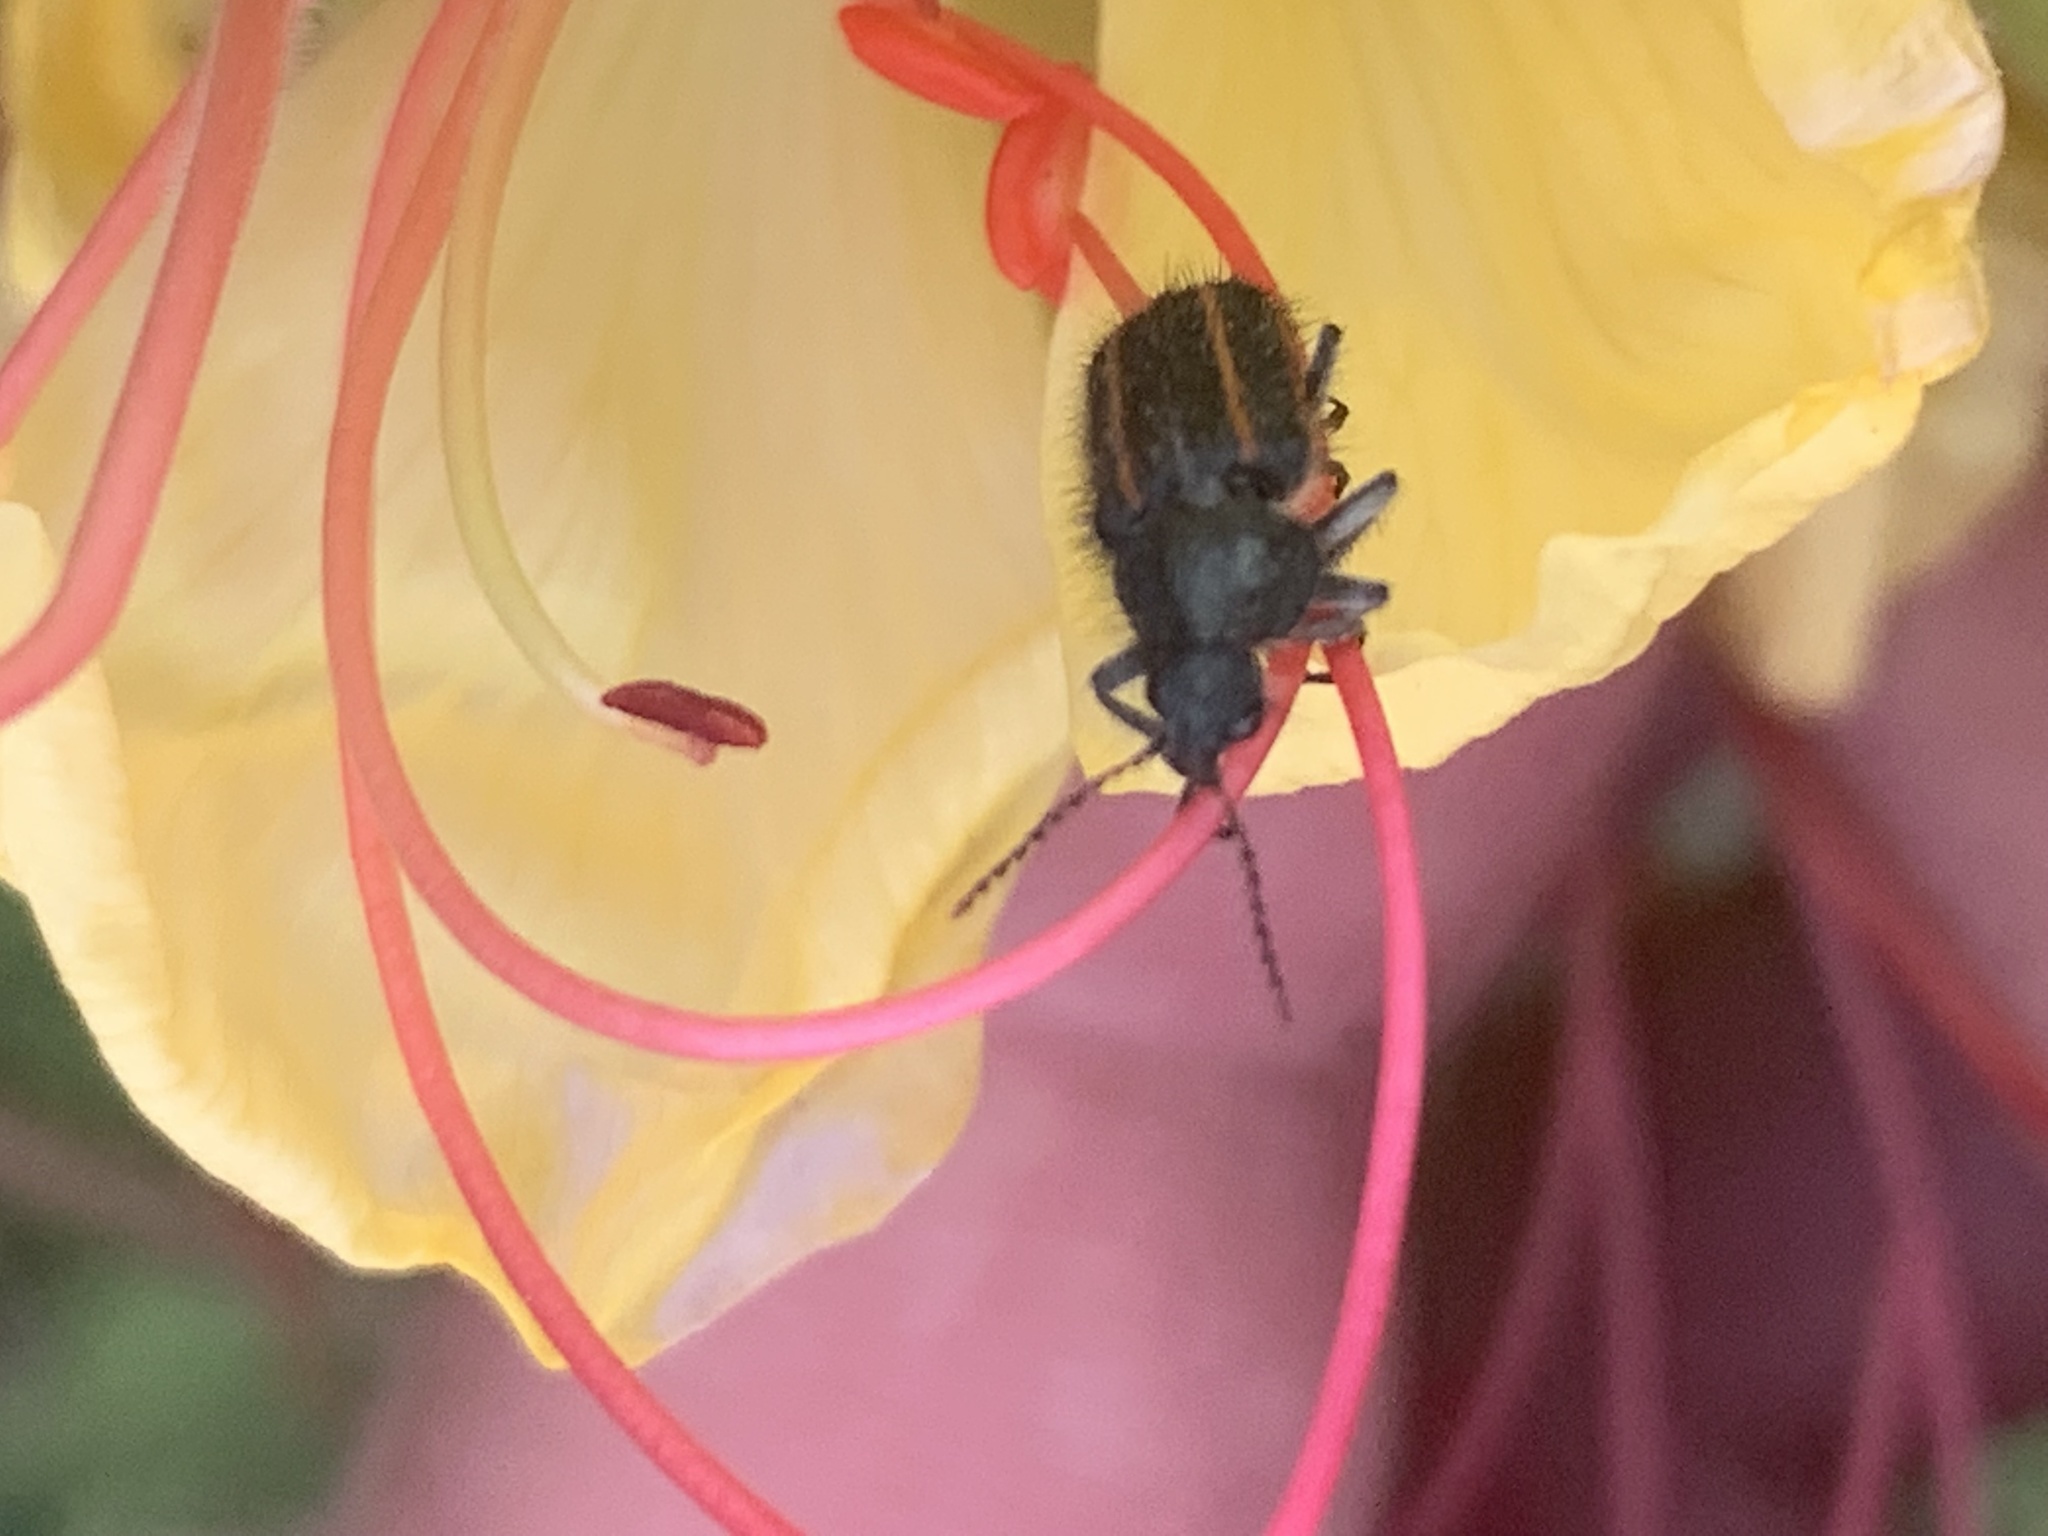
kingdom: Animalia
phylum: Arthropoda
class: Insecta
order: Coleoptera
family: Melyridae
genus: Astylus
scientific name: Astylus
